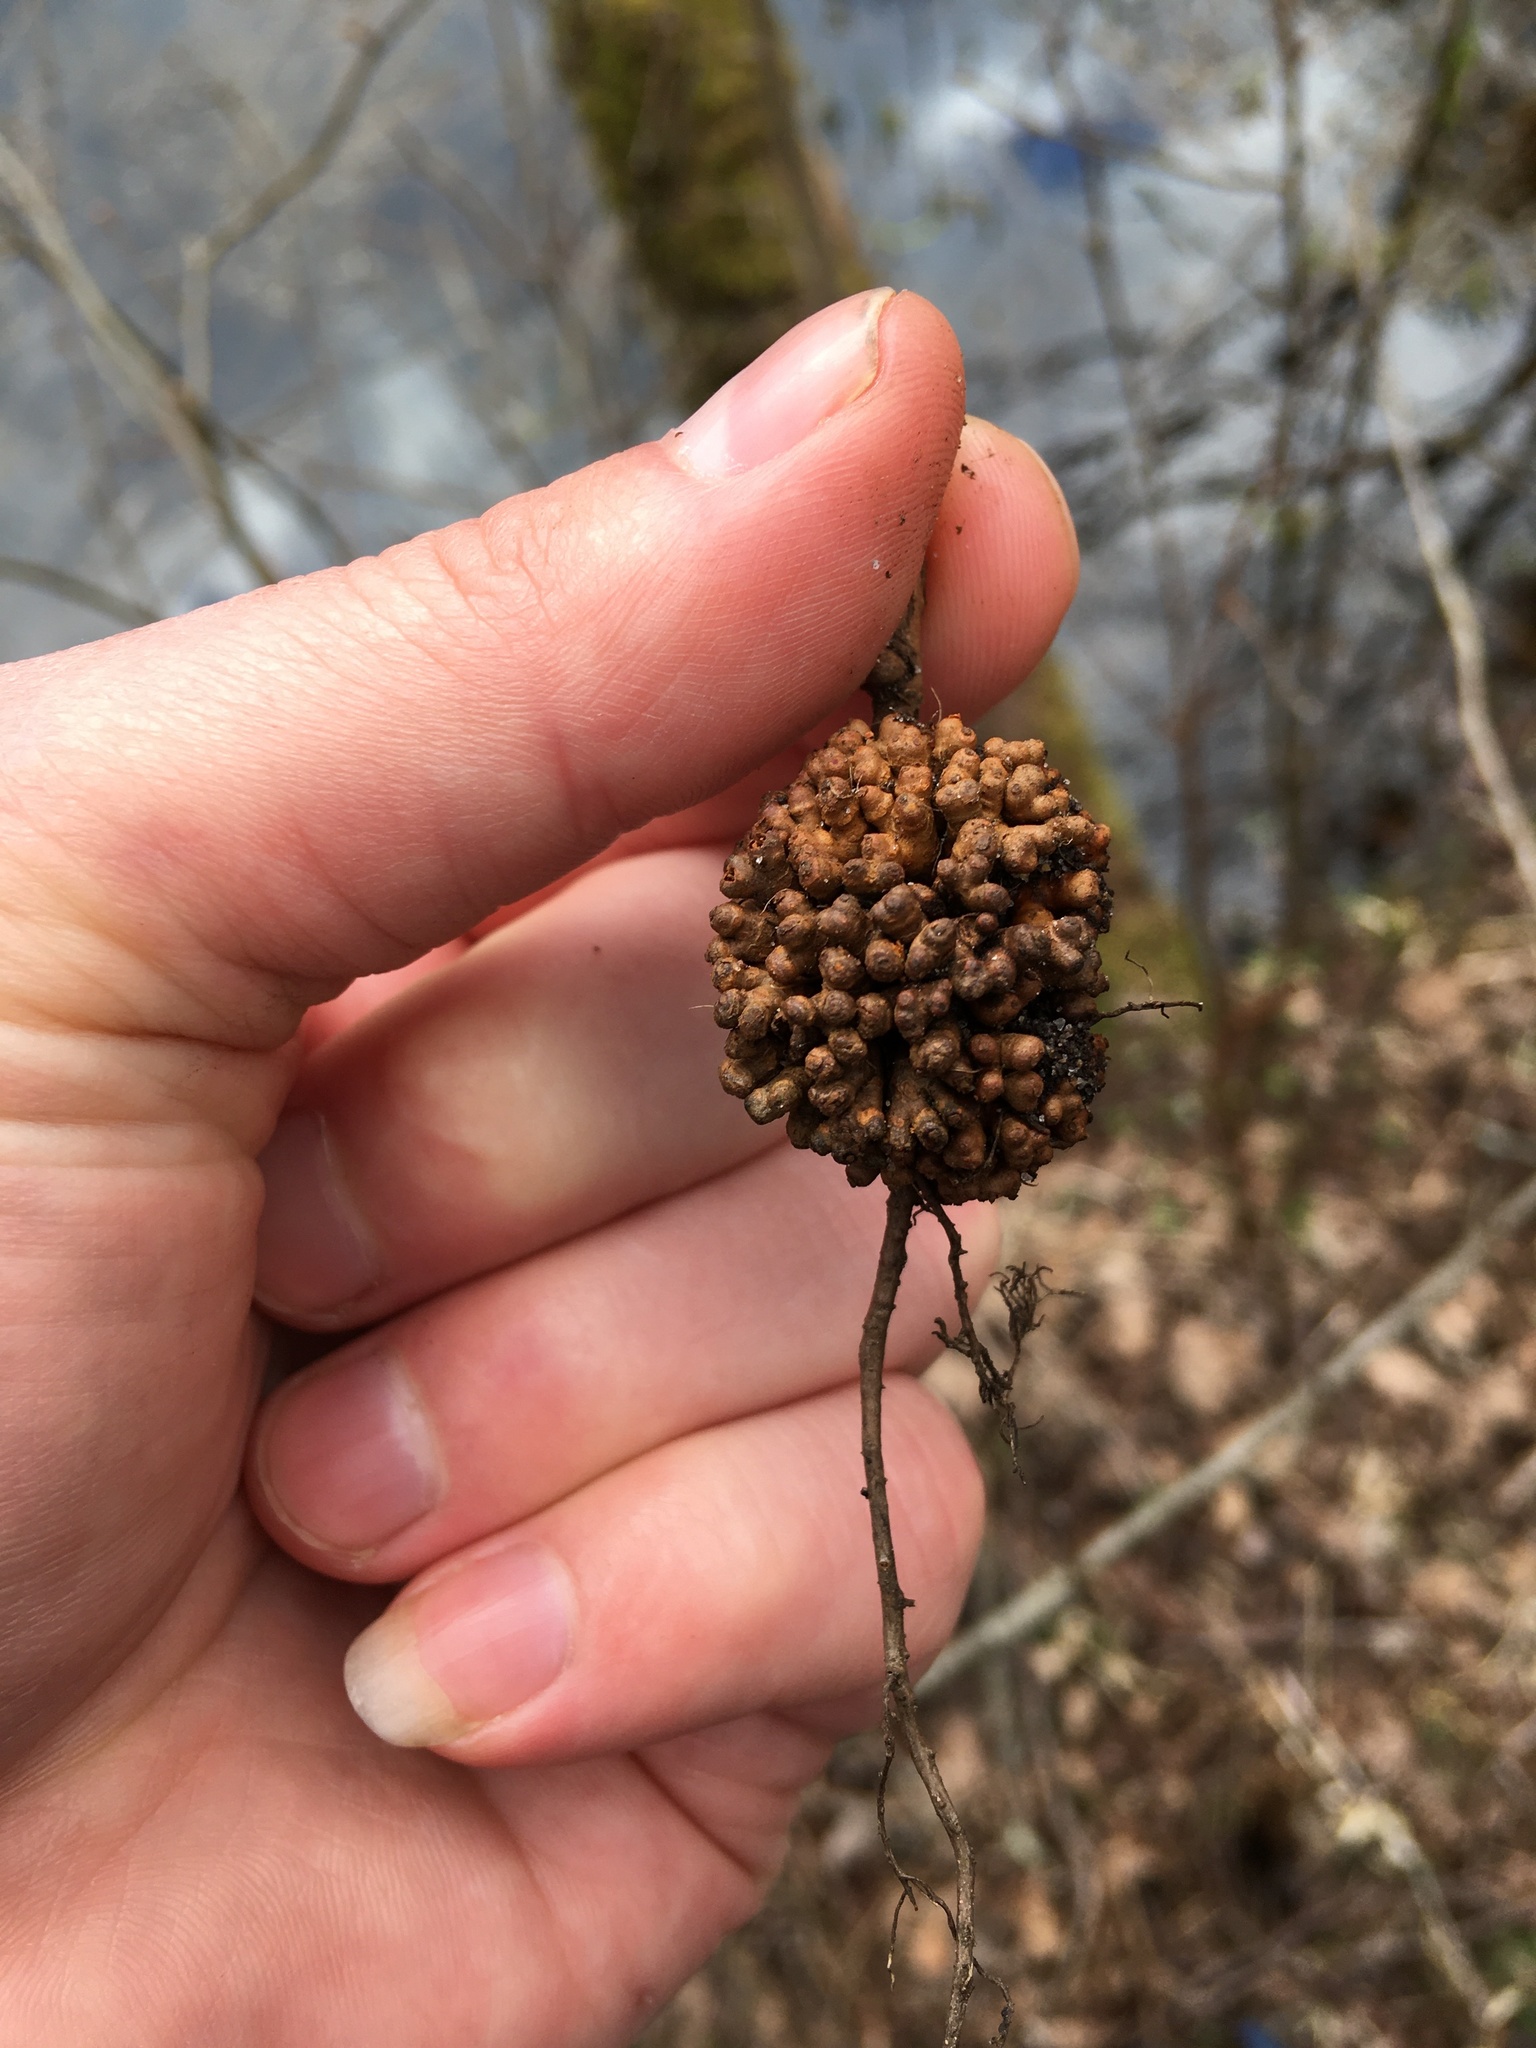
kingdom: Bacteria
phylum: Actinobacteriota
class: Actinomycetia
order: Mycobacteriales
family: Frankiaceae
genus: Frankia
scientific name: Frankia alni
